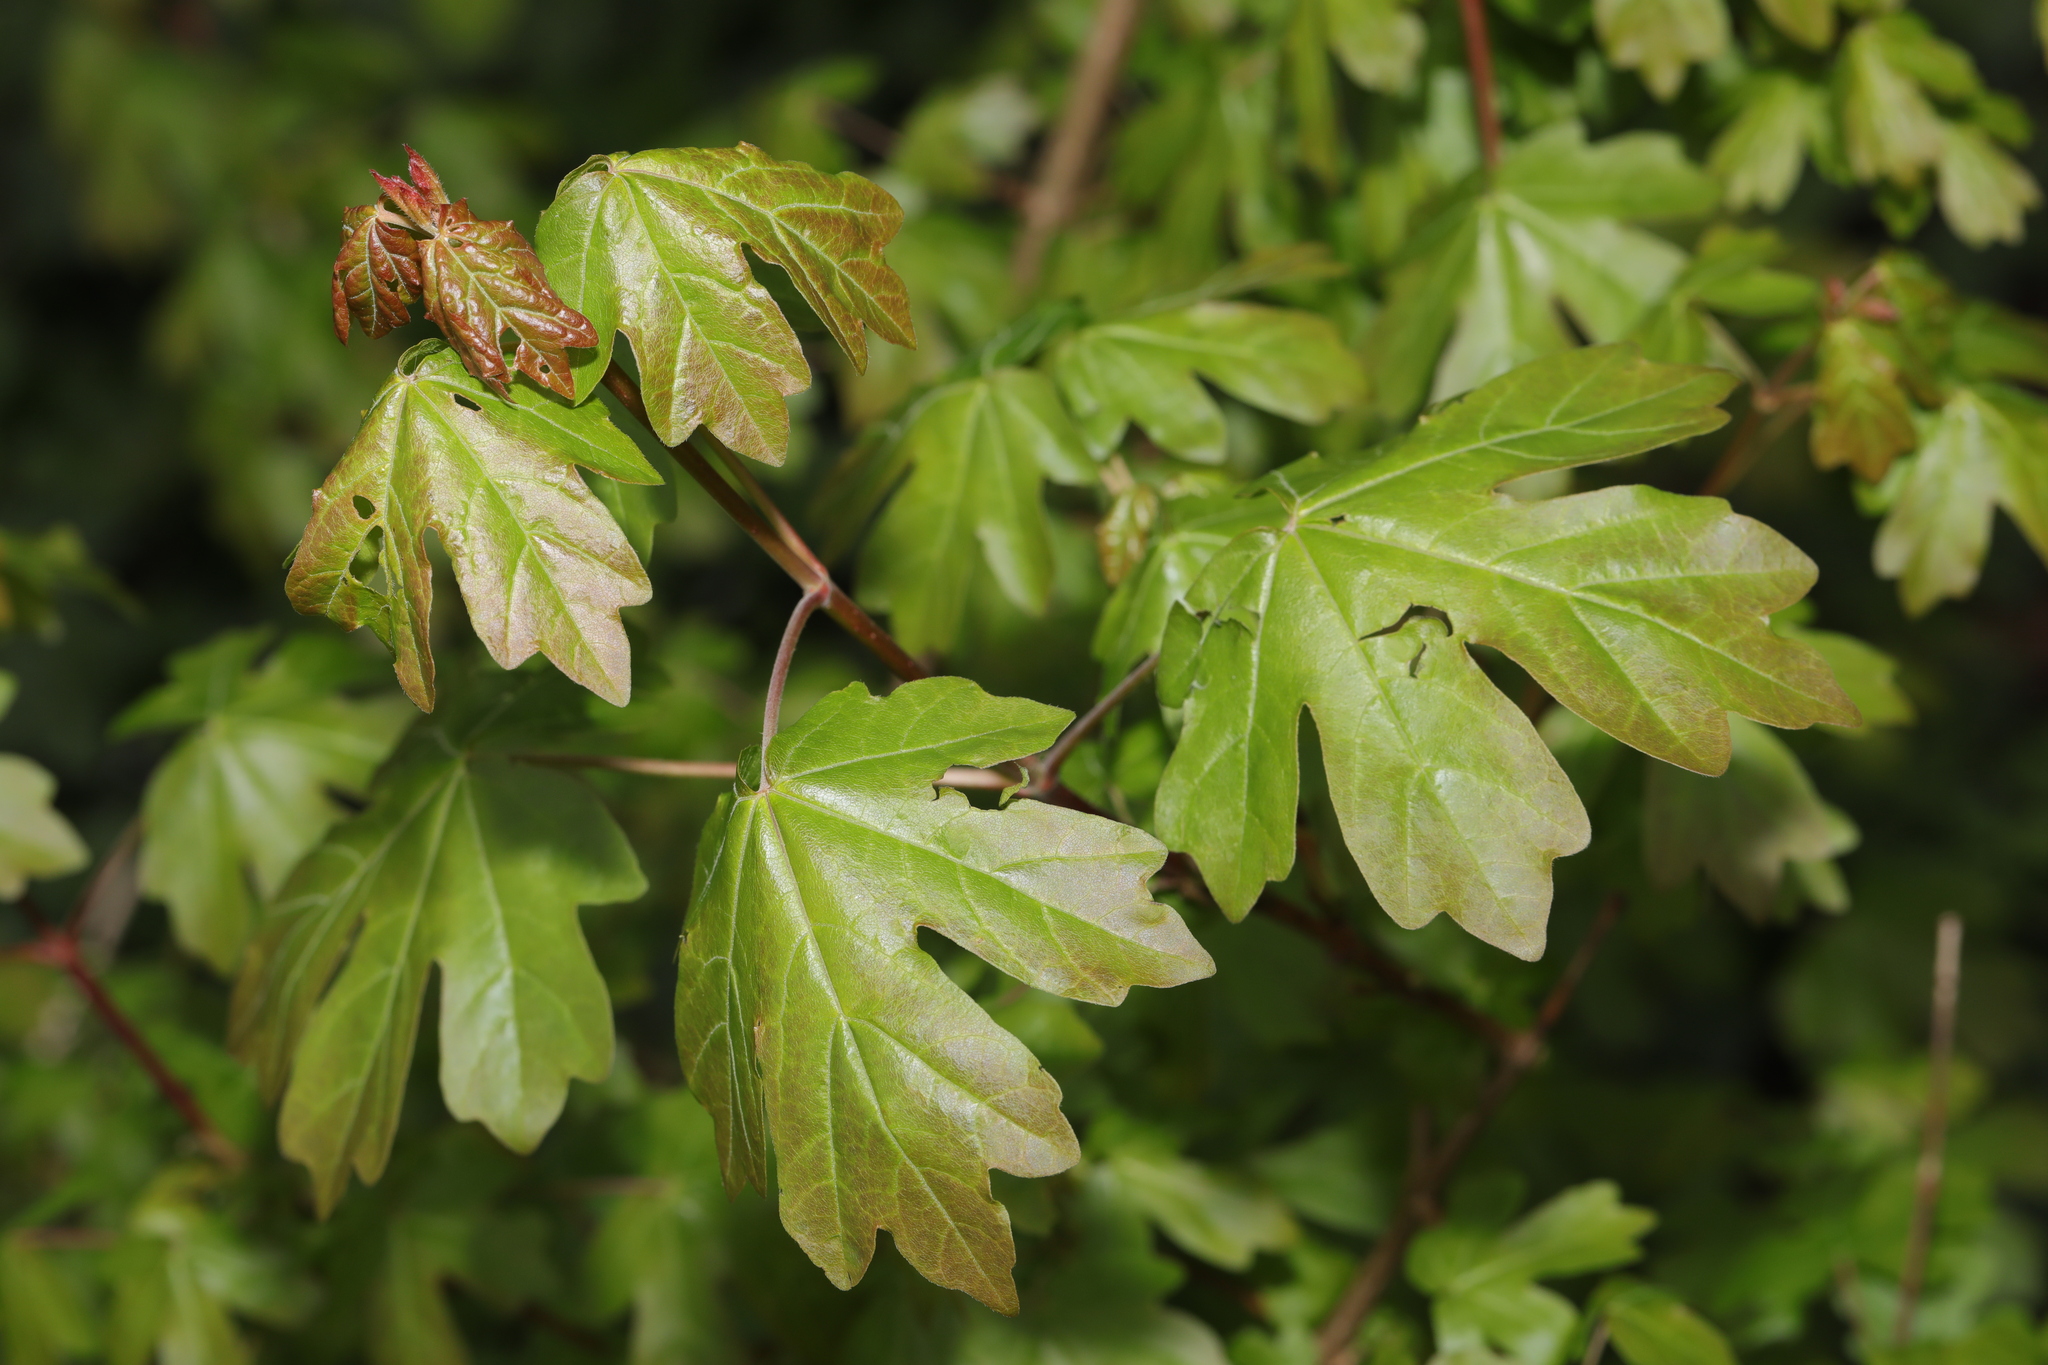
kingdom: Plantae
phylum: Tracheophyta
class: Magnoliopsida
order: Sapindales
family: Sapindaceae
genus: Acer
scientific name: Acer campestre
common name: Field maple
